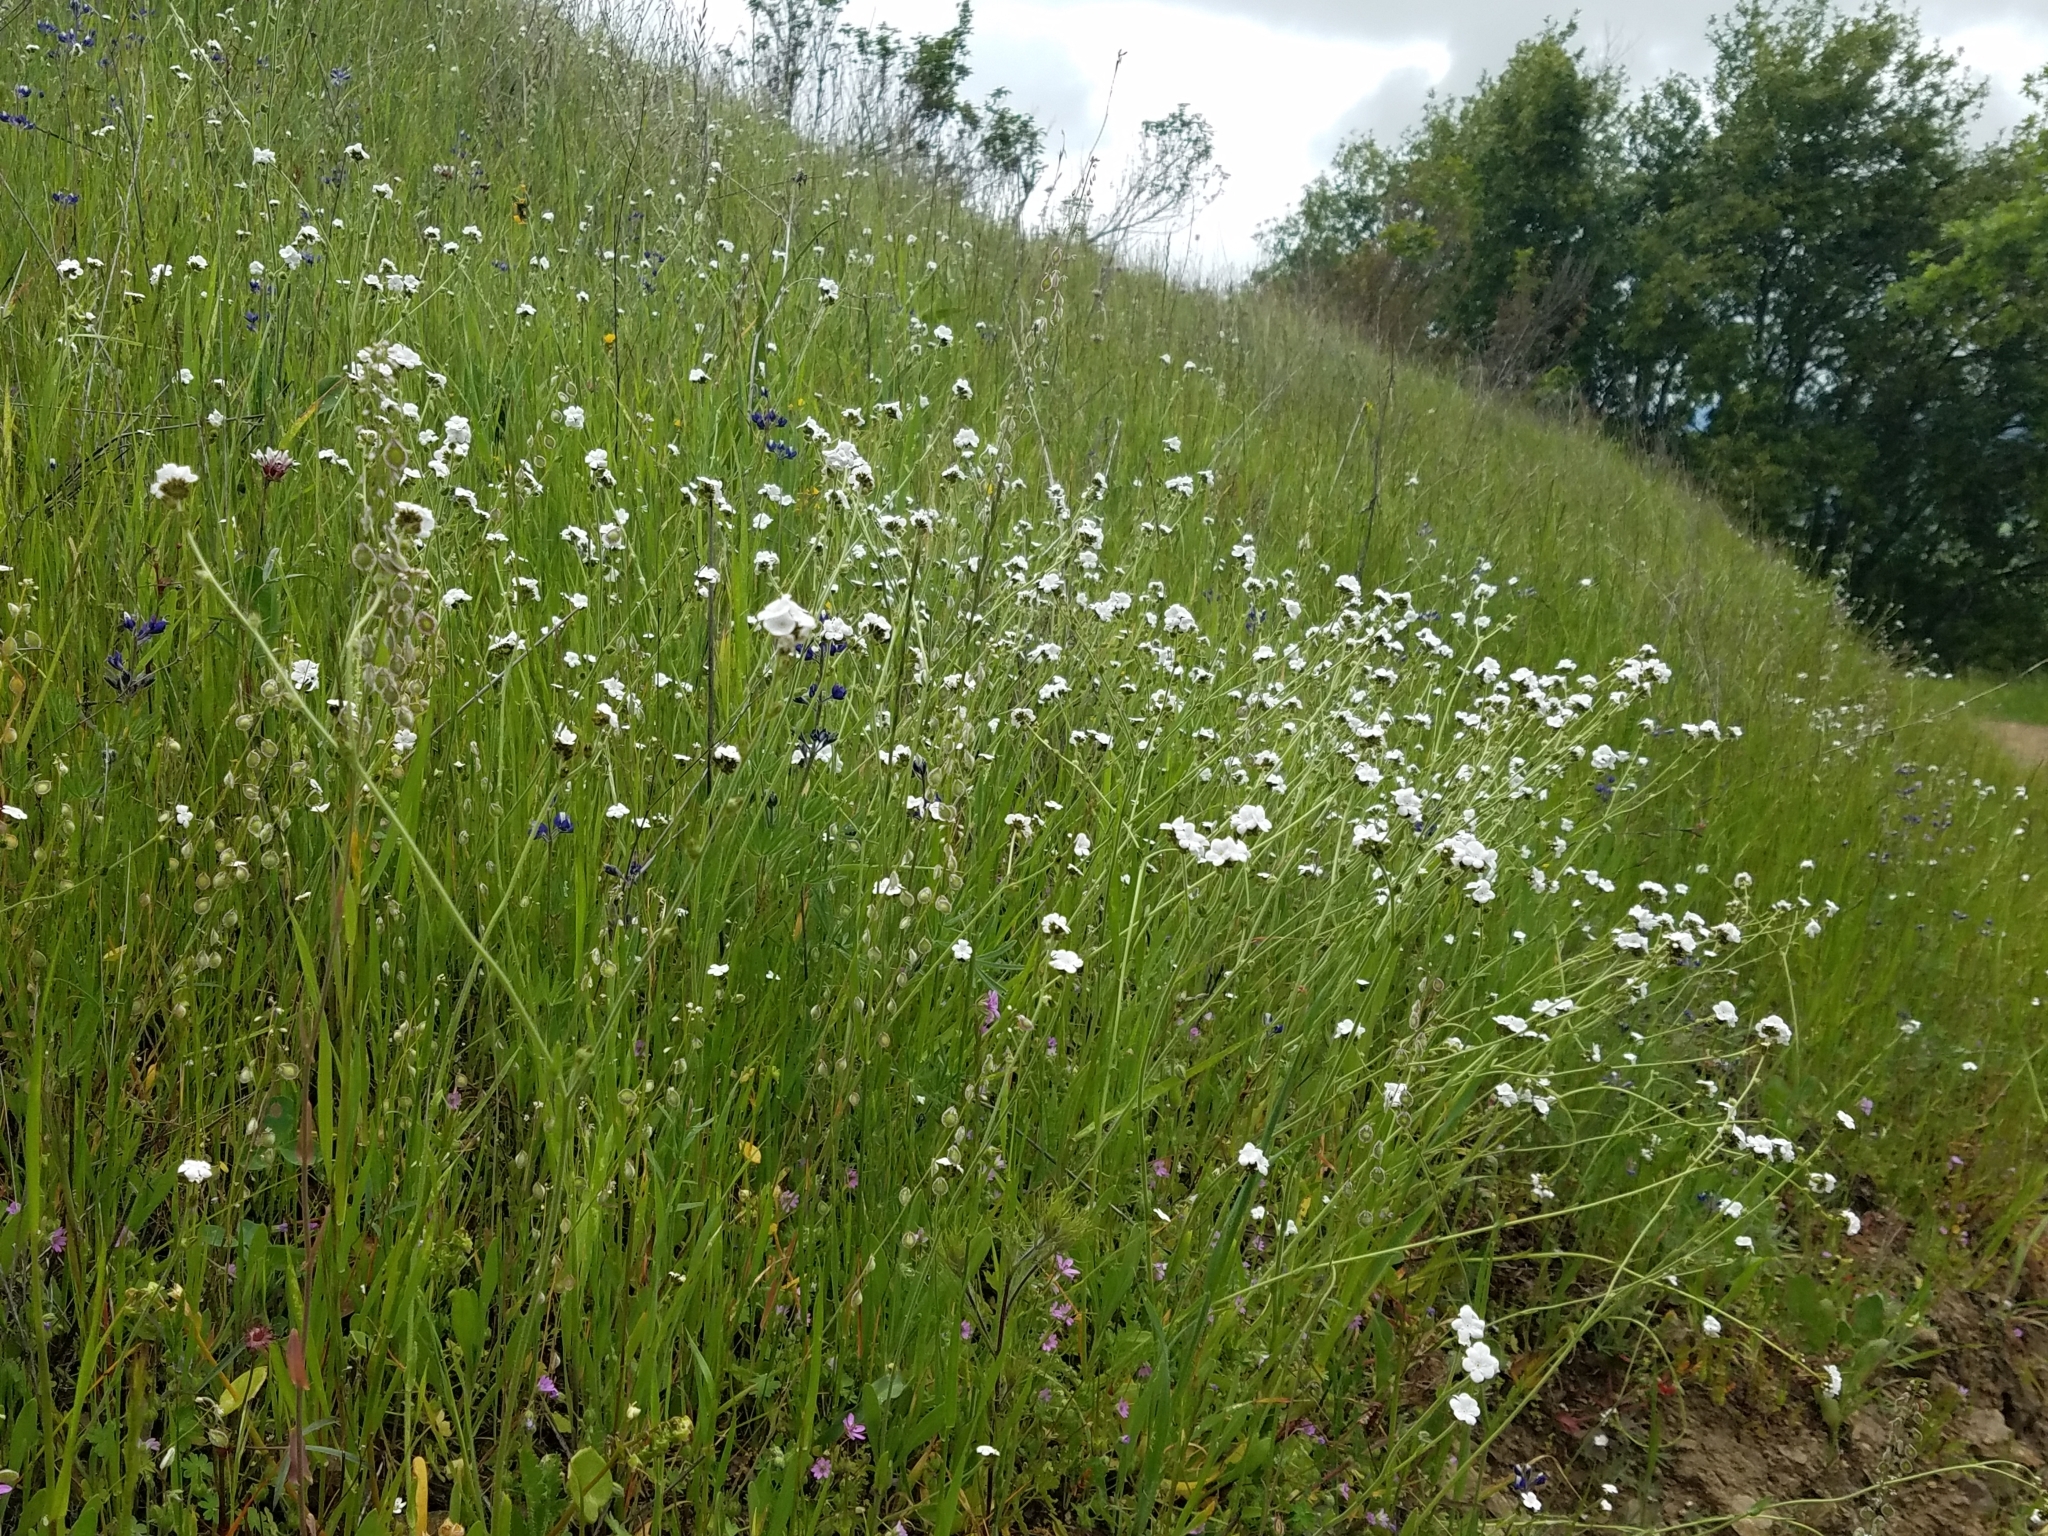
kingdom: Plantae
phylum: Tracheophyta
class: Magnoliopsida
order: Boraginales
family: Boraginaceae
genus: Plagiobothrys
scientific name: Plagiobothrys nothofulvus
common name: Popcorn-flower
